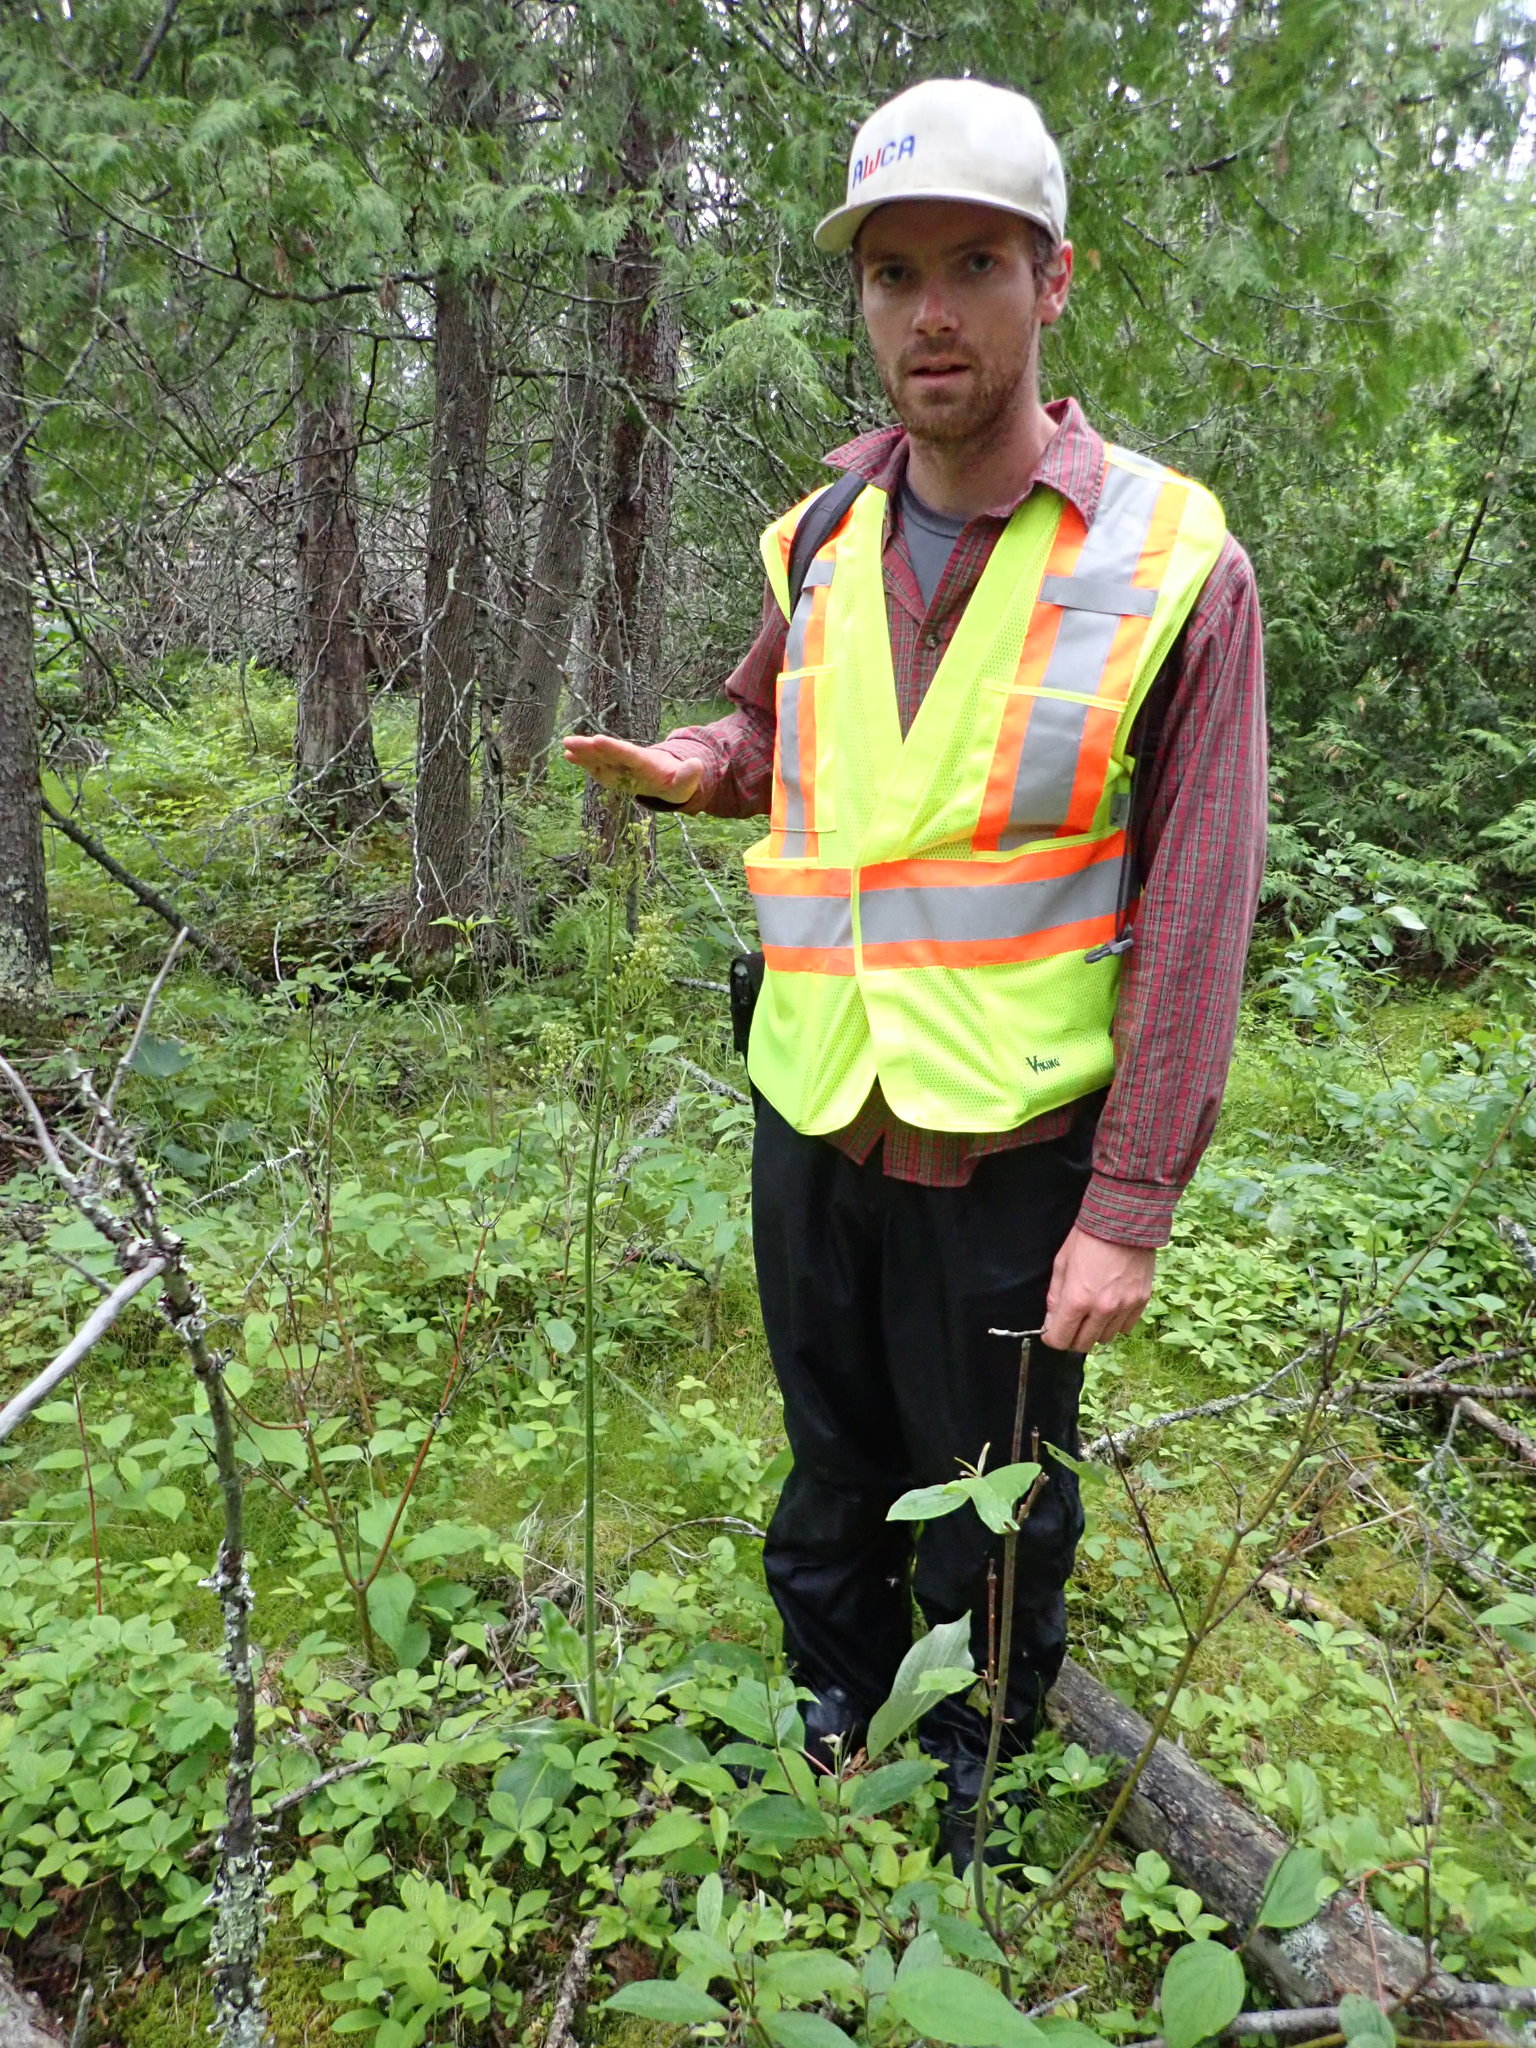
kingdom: Plantae
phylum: Tracheophyta
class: Magnoliopsida
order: Saxifragales
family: Saxifragaceae
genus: Micranthes
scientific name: Micranthes pensylvanica
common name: Marsh saxifrage
